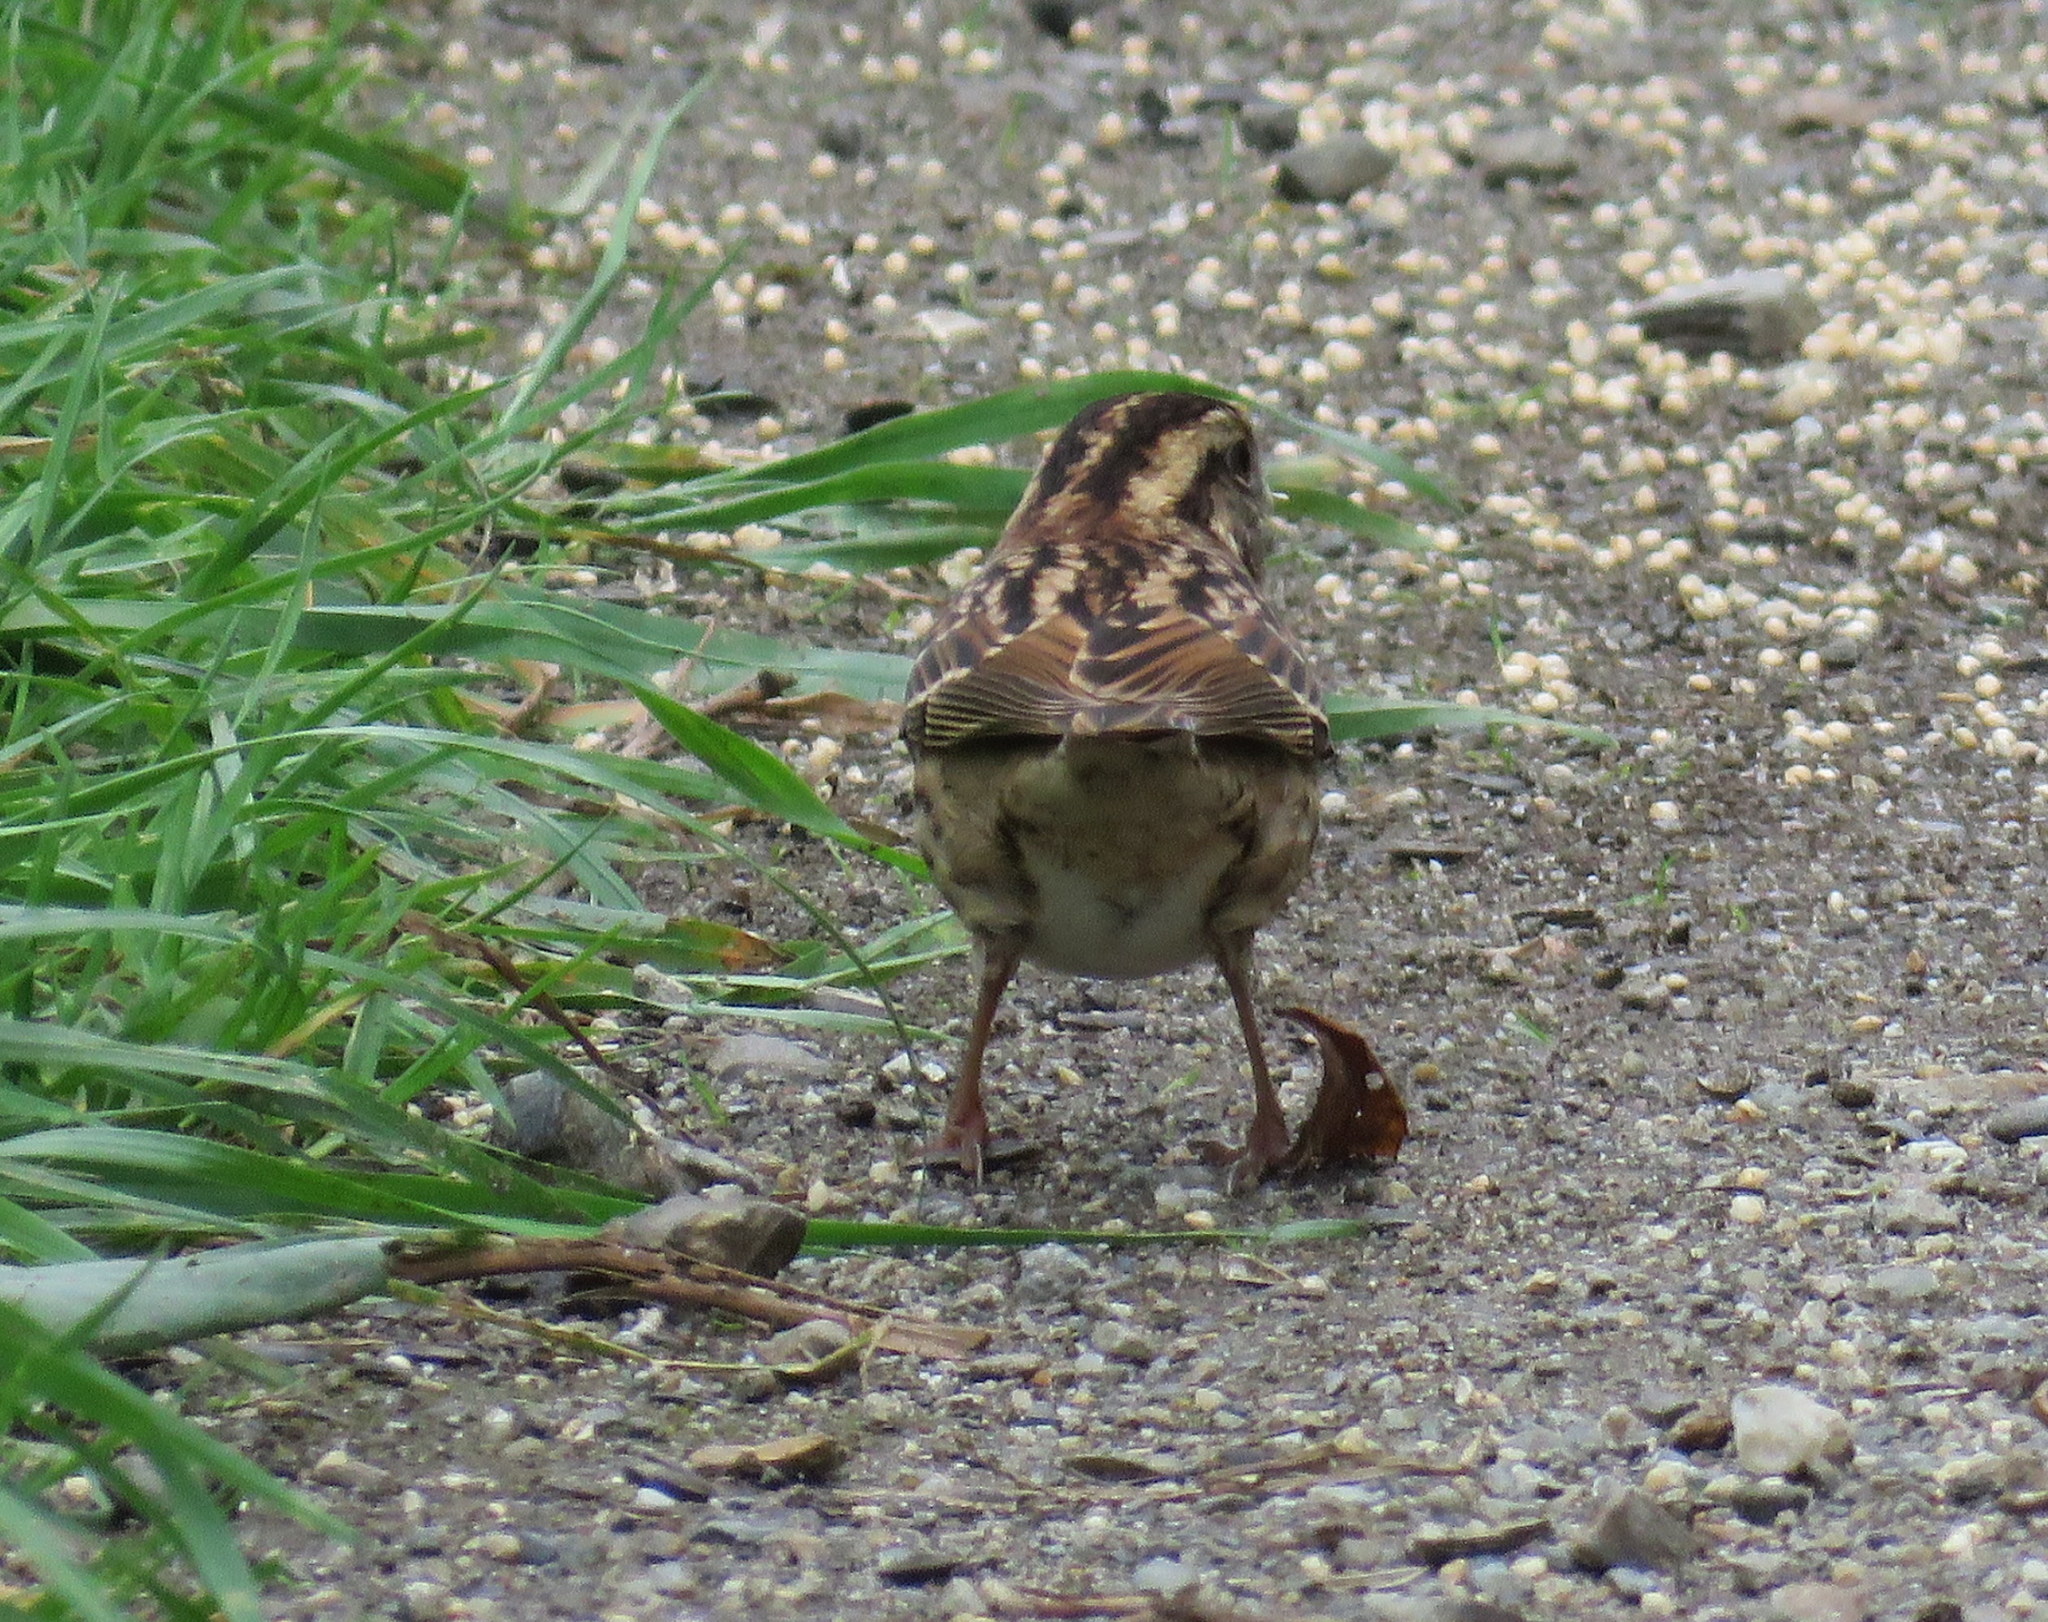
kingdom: Animalia
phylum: Chordata
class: Aves
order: Passeriformes
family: Passerellidae
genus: Zonotrichia
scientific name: Zonotrichia albicollis
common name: White-throated sparrow
